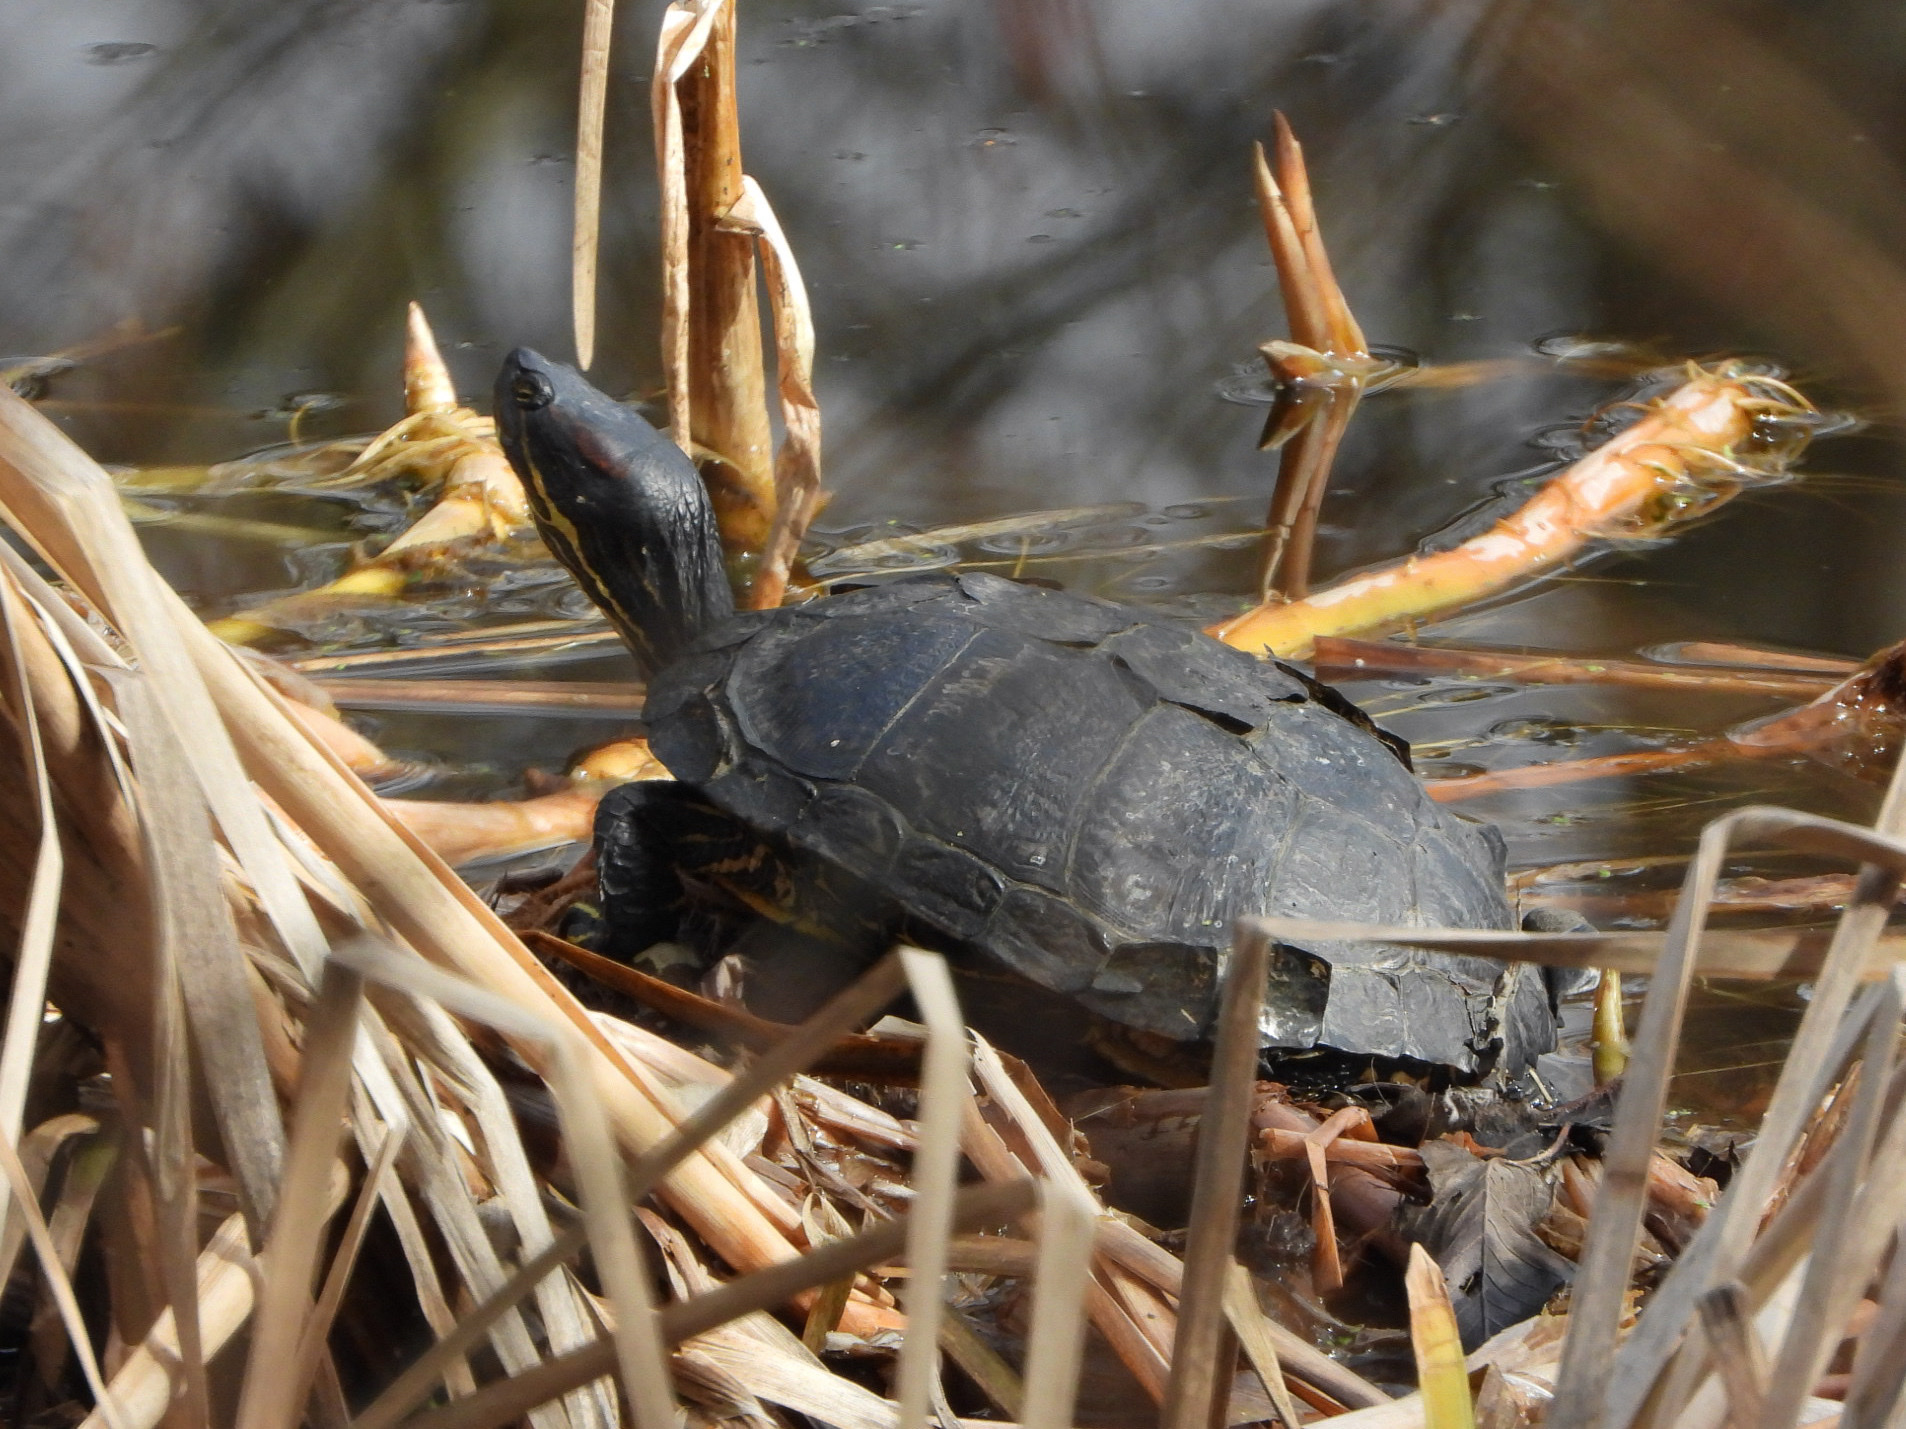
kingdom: Animalia
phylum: Chordata
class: Testudines
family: Emydidae
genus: Trachemys
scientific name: Trachemys scripta
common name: Slider
